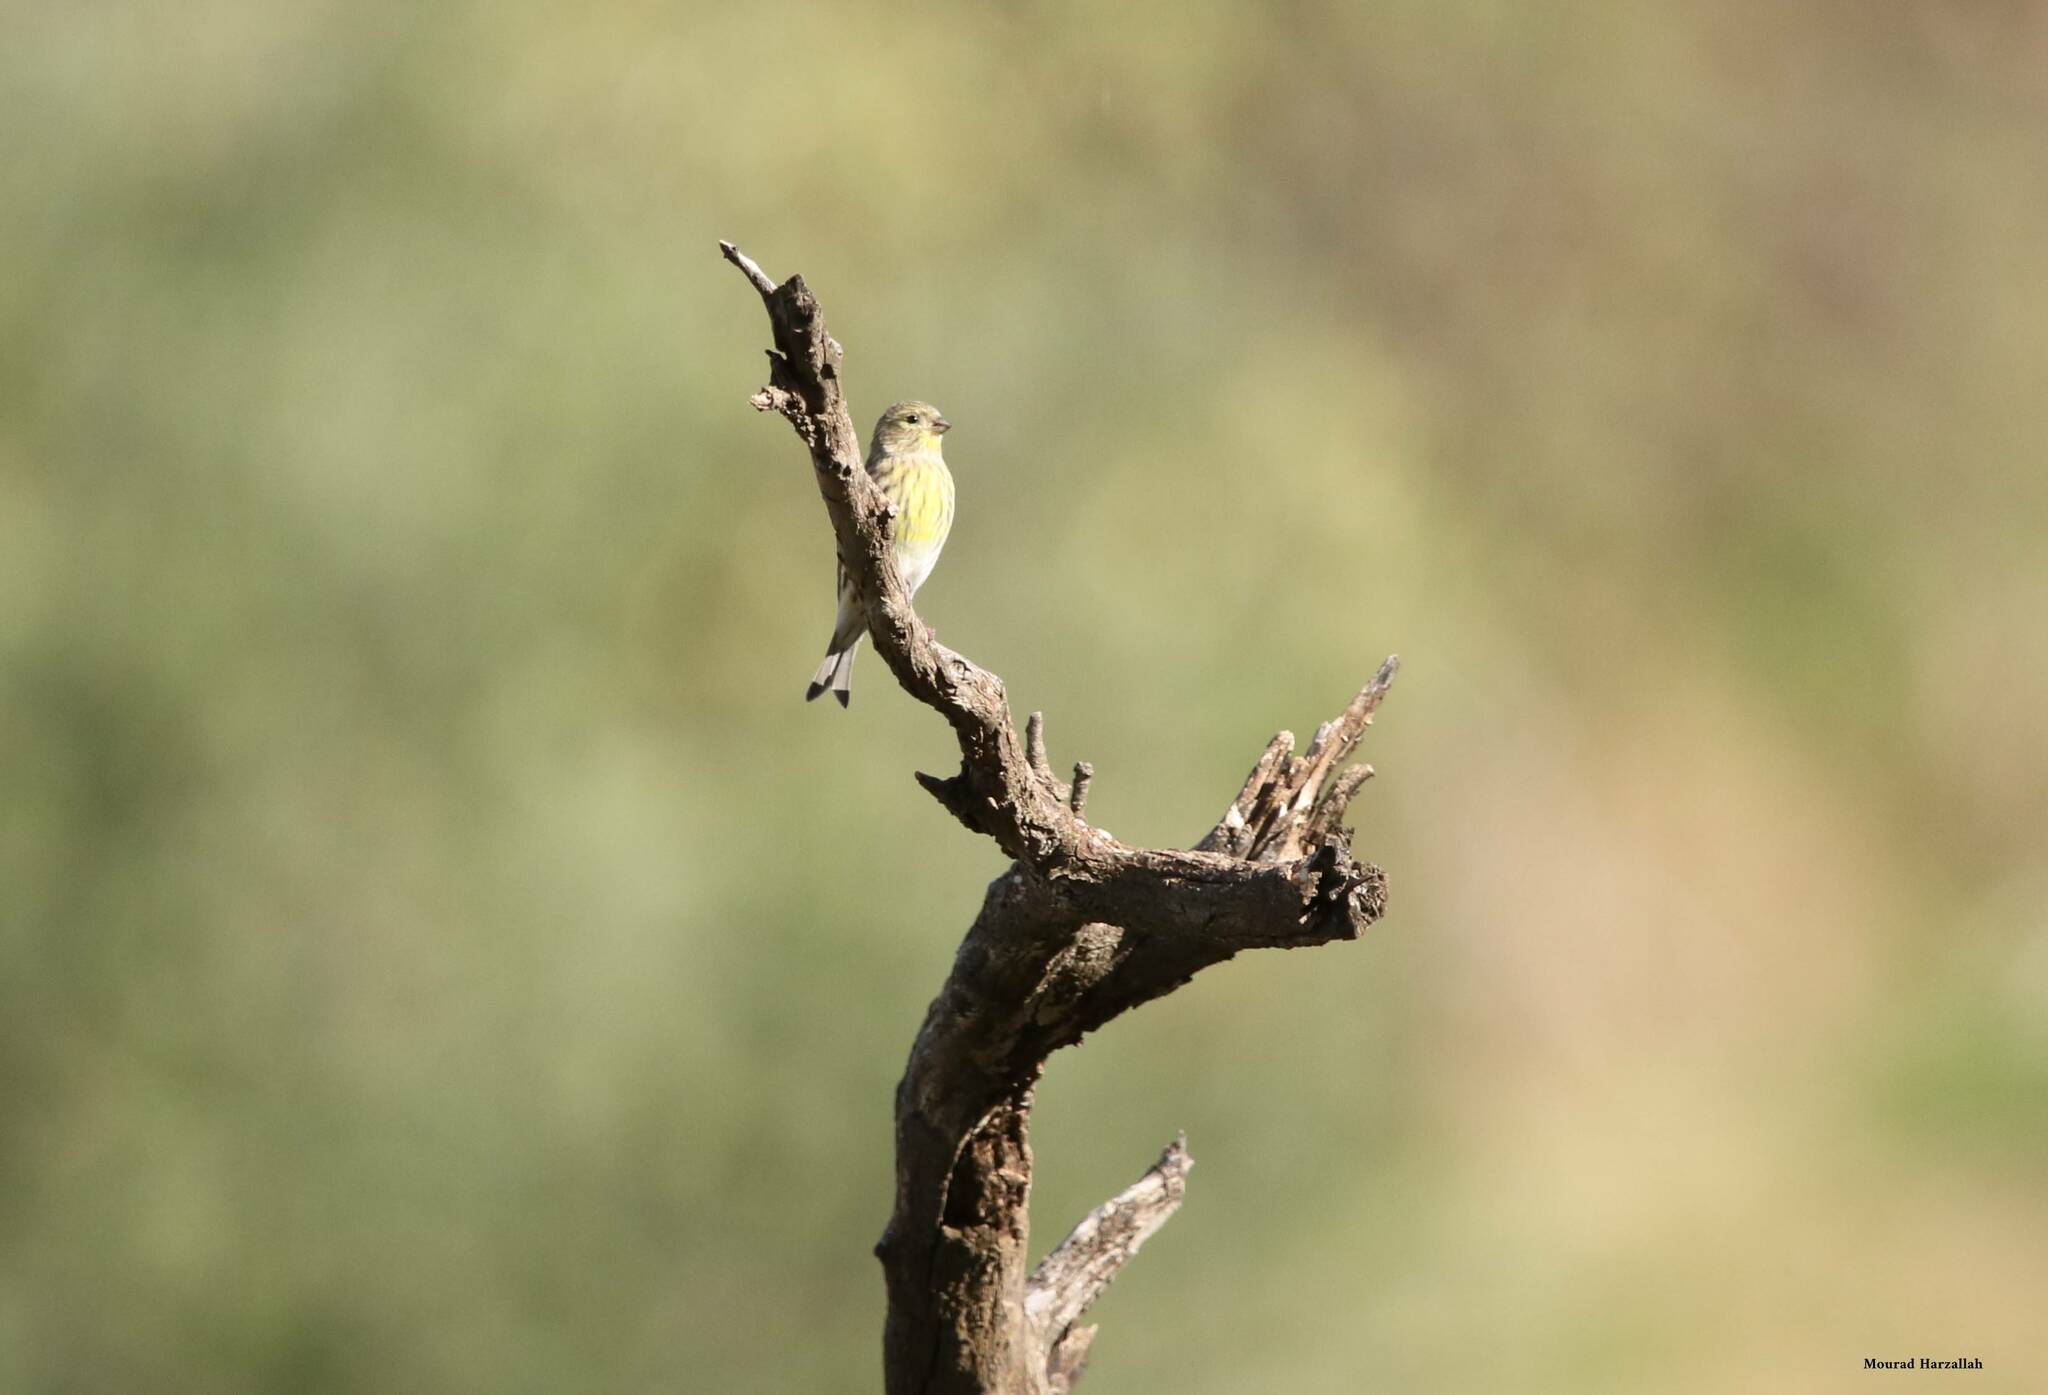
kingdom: Animalia
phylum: Chordata
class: Aves
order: Passeriformes
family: Fringillidae
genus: Serinus
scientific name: Serinus serinus
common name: European serin
